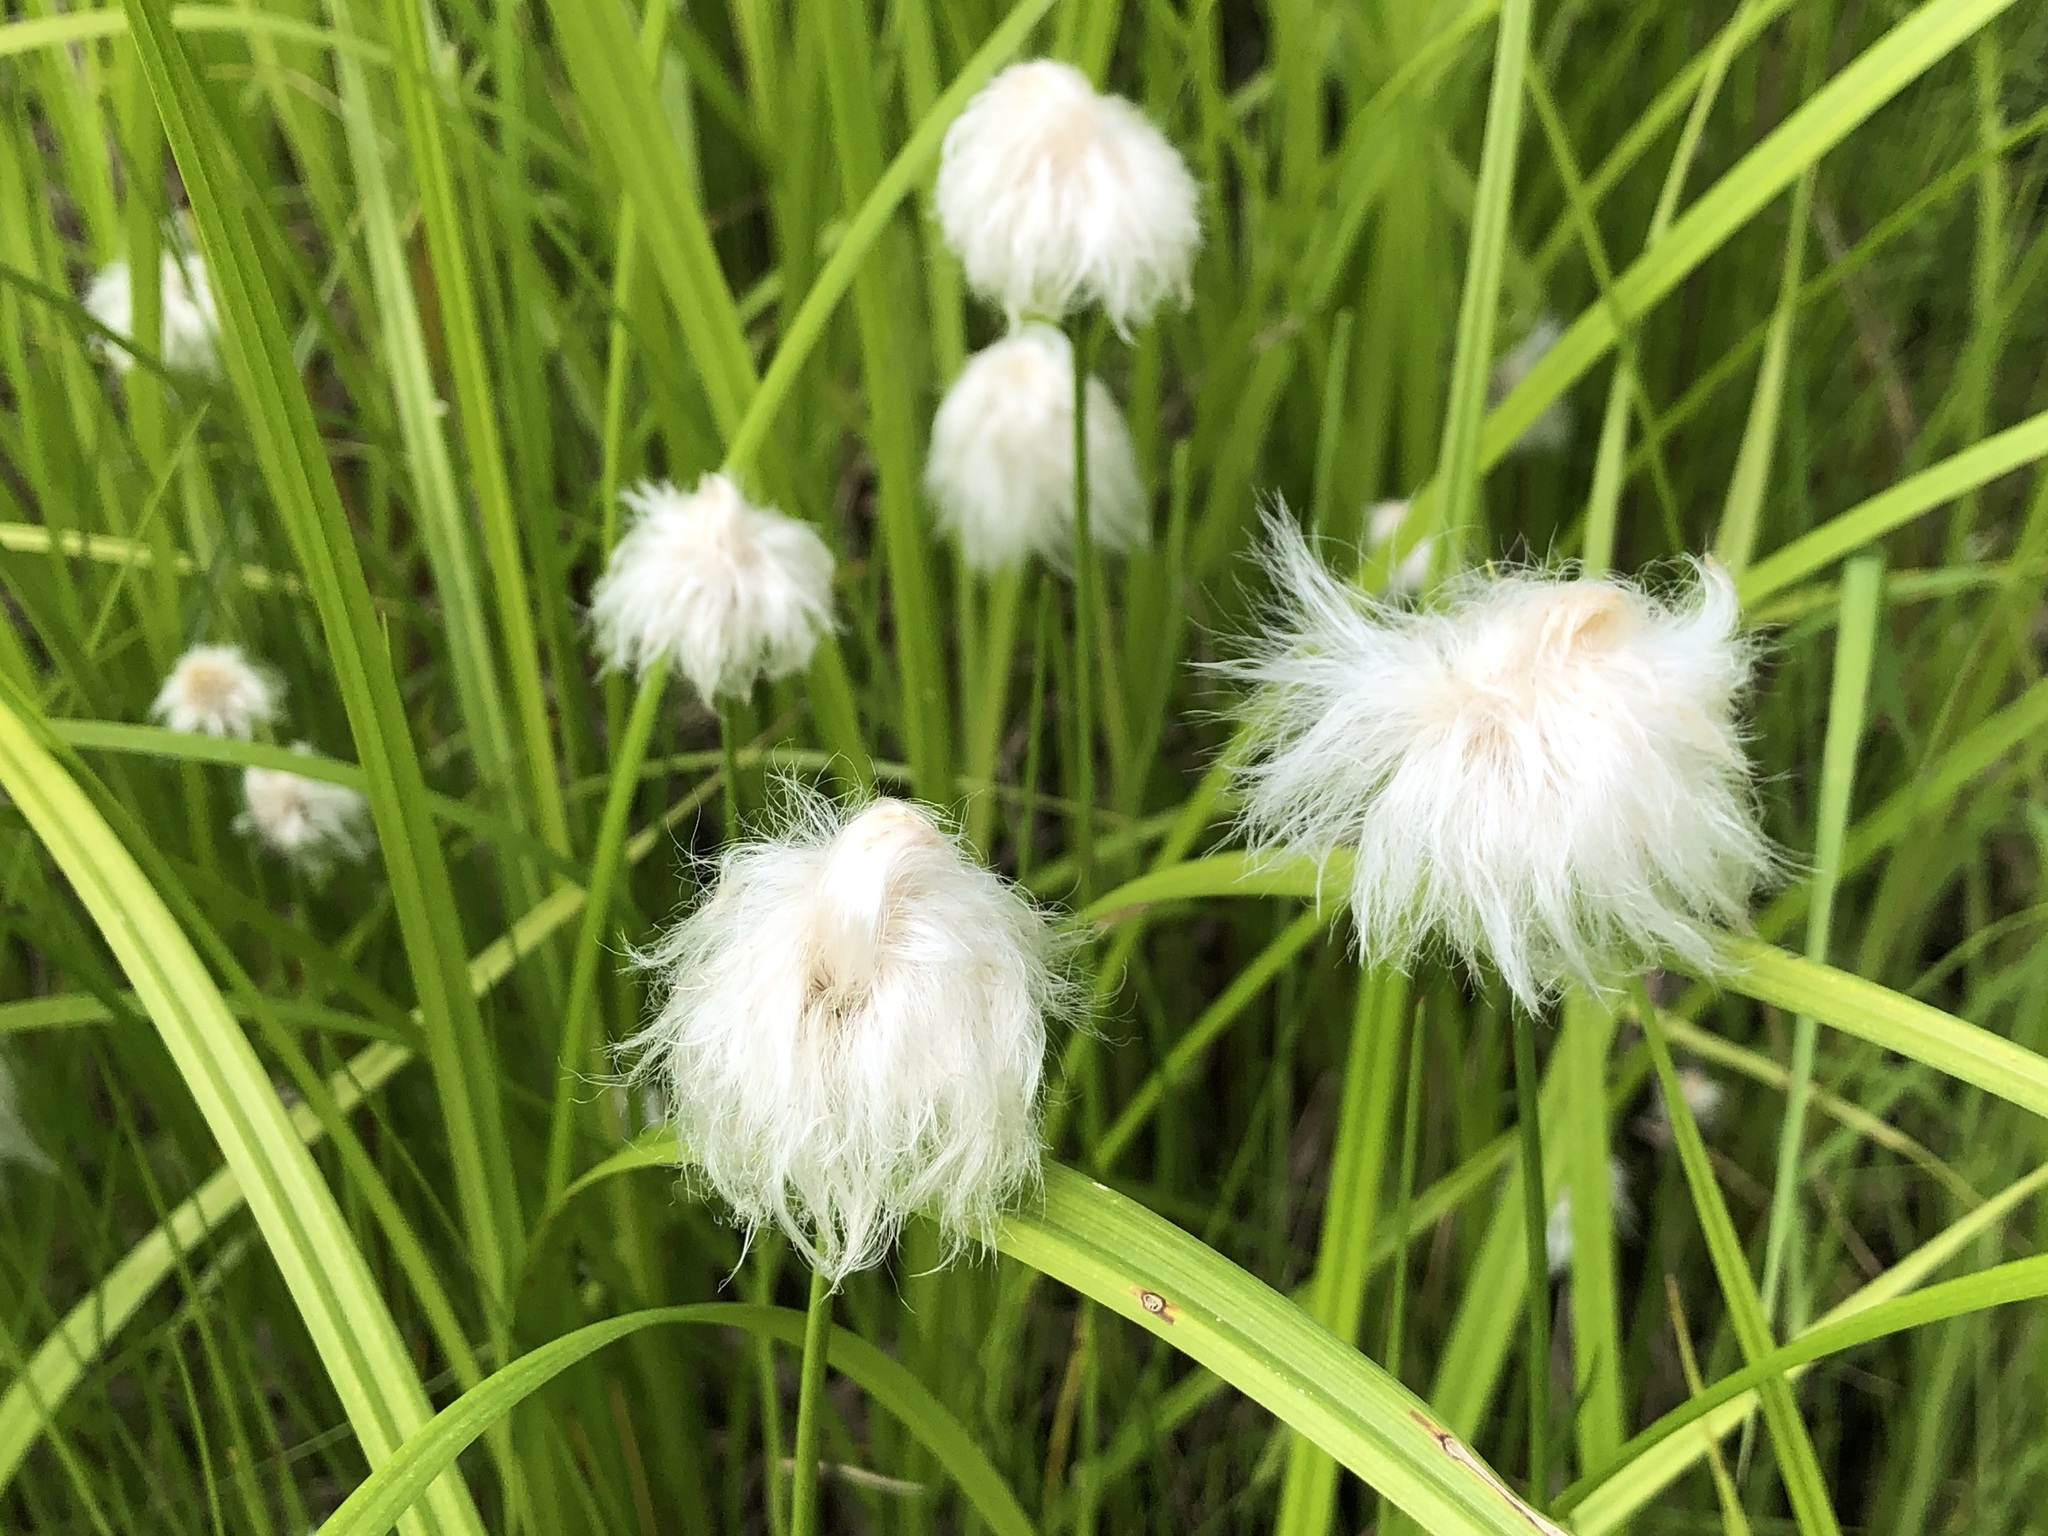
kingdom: Plantae
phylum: Tracheophyta
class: Liliopsida
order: Poales
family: Cyperaceae
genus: Eriophorum
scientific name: Eriophorum scheuchzeri
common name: Scheuchzer's cottongrass
